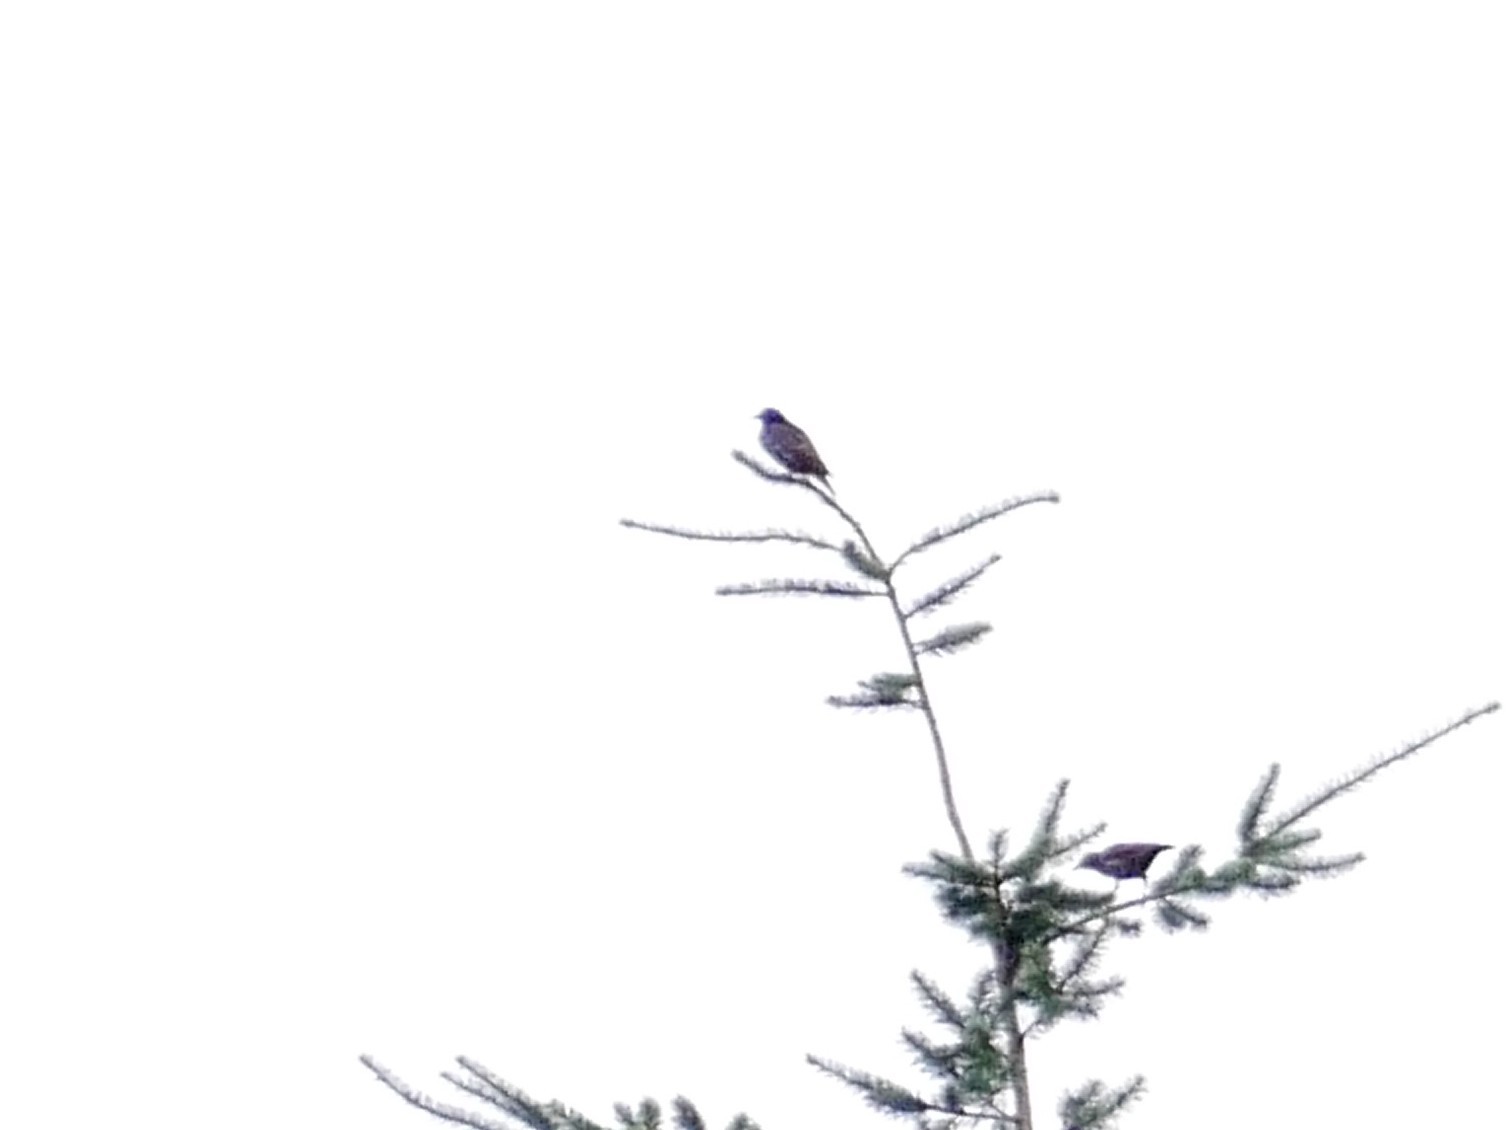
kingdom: Animalia
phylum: Chordata
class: Aves
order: Passeriformes
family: Sturnidae
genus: Sturnus
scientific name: Sturnus vulgaris
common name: Common starling
